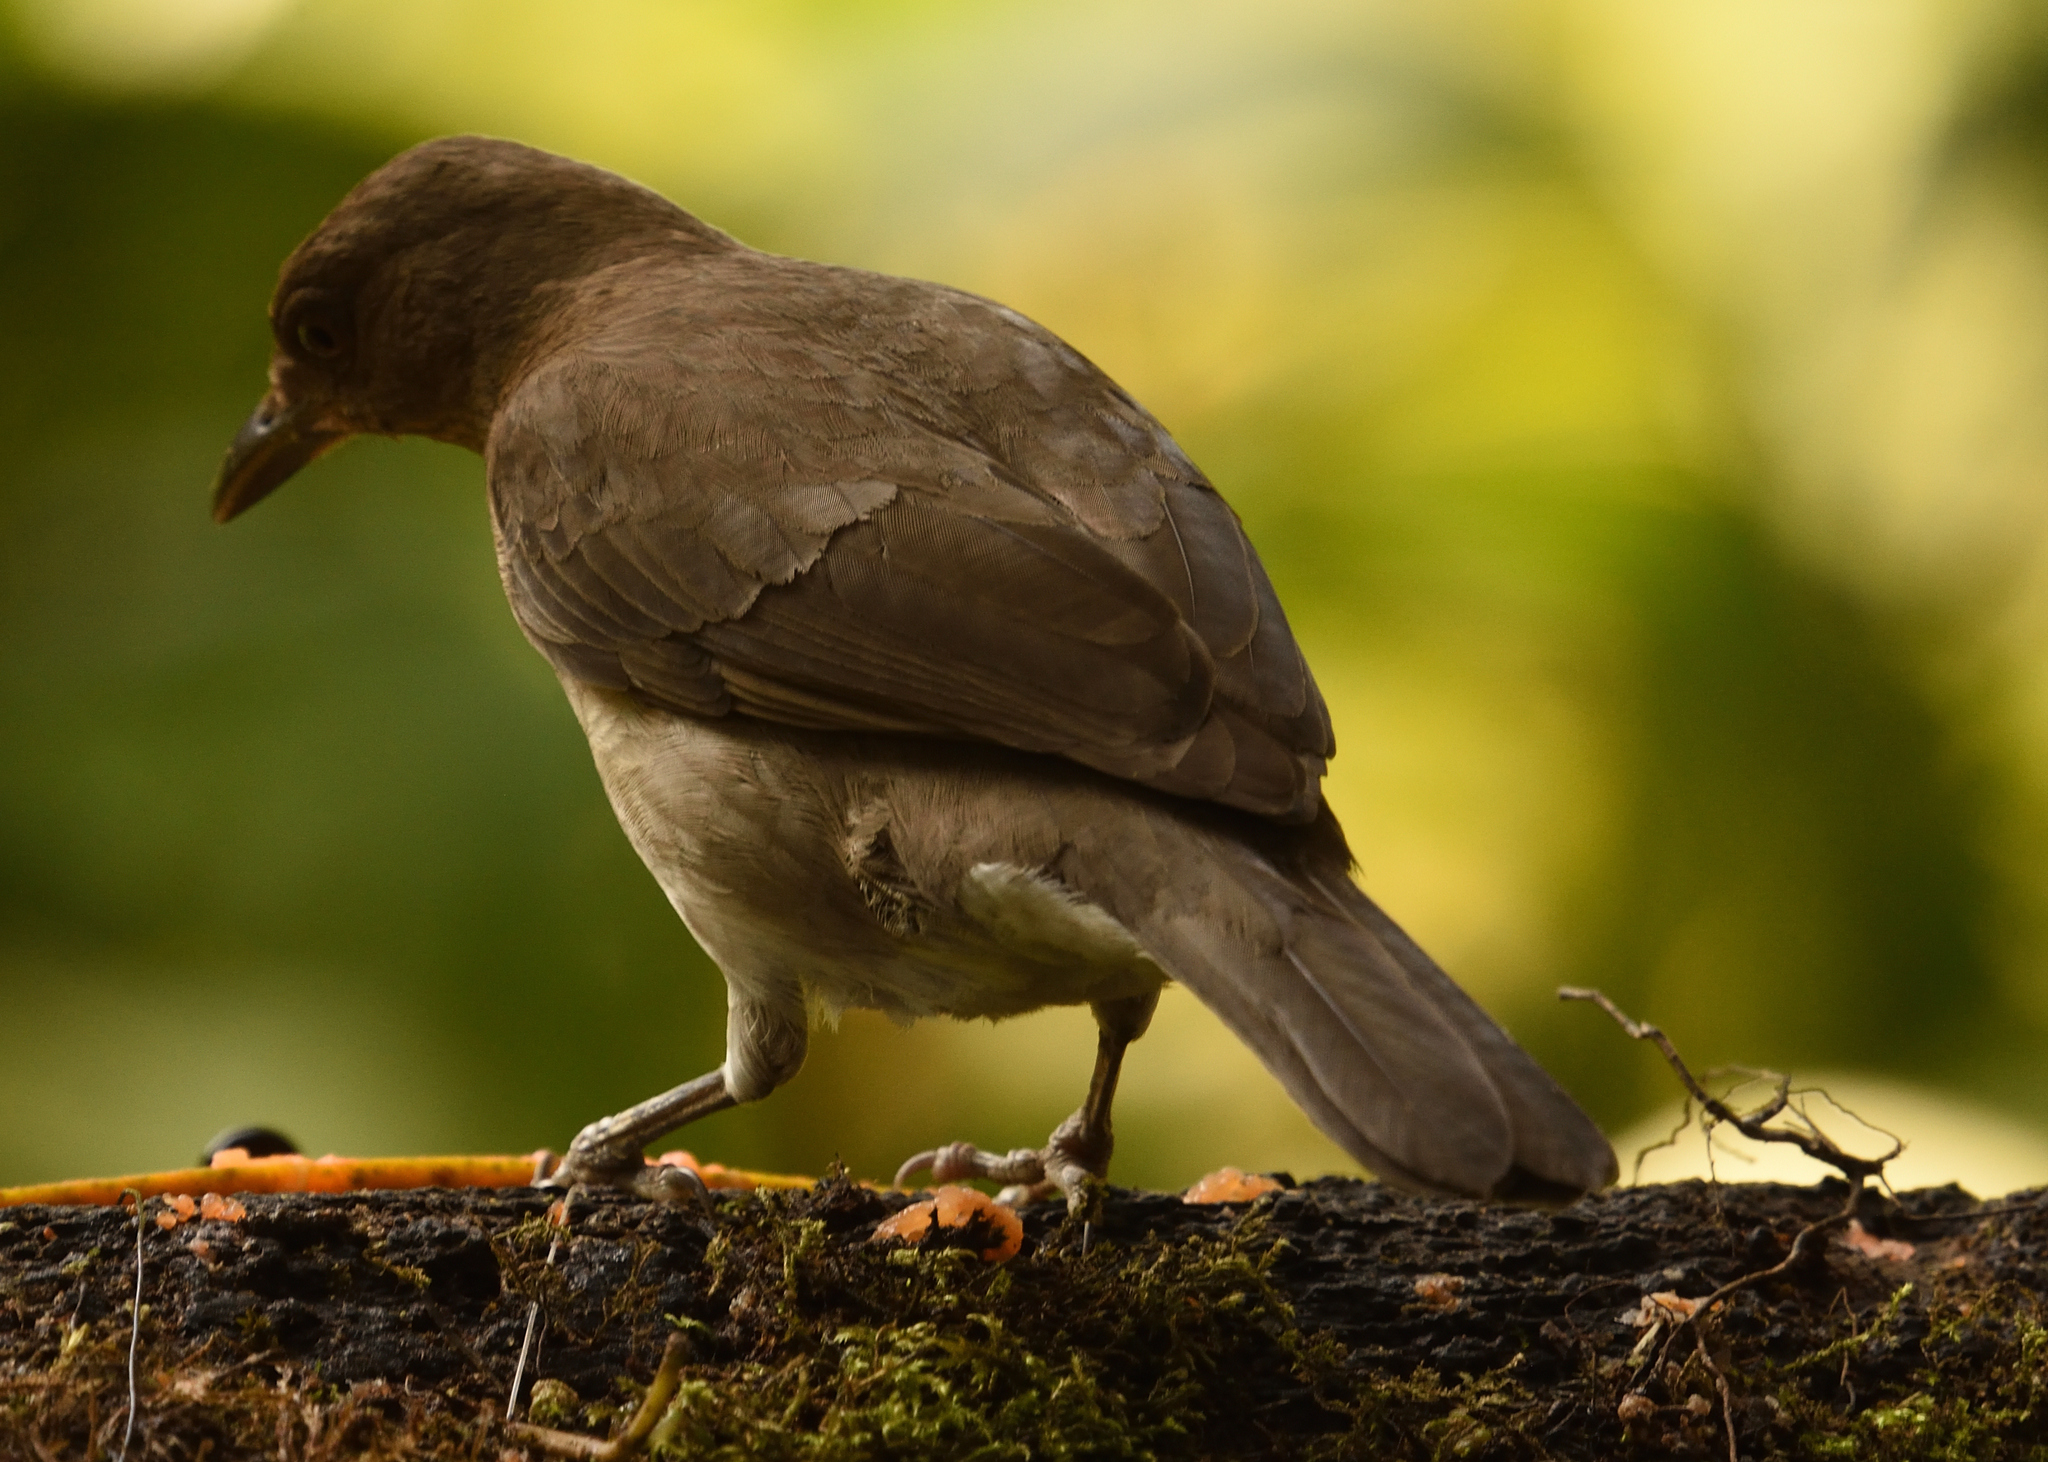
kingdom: Animalia
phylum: Chordata
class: Aves
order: Passeriformes
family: Turdidae
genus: Turdus
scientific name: Turdus ignobilis
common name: Black-billed thrush
